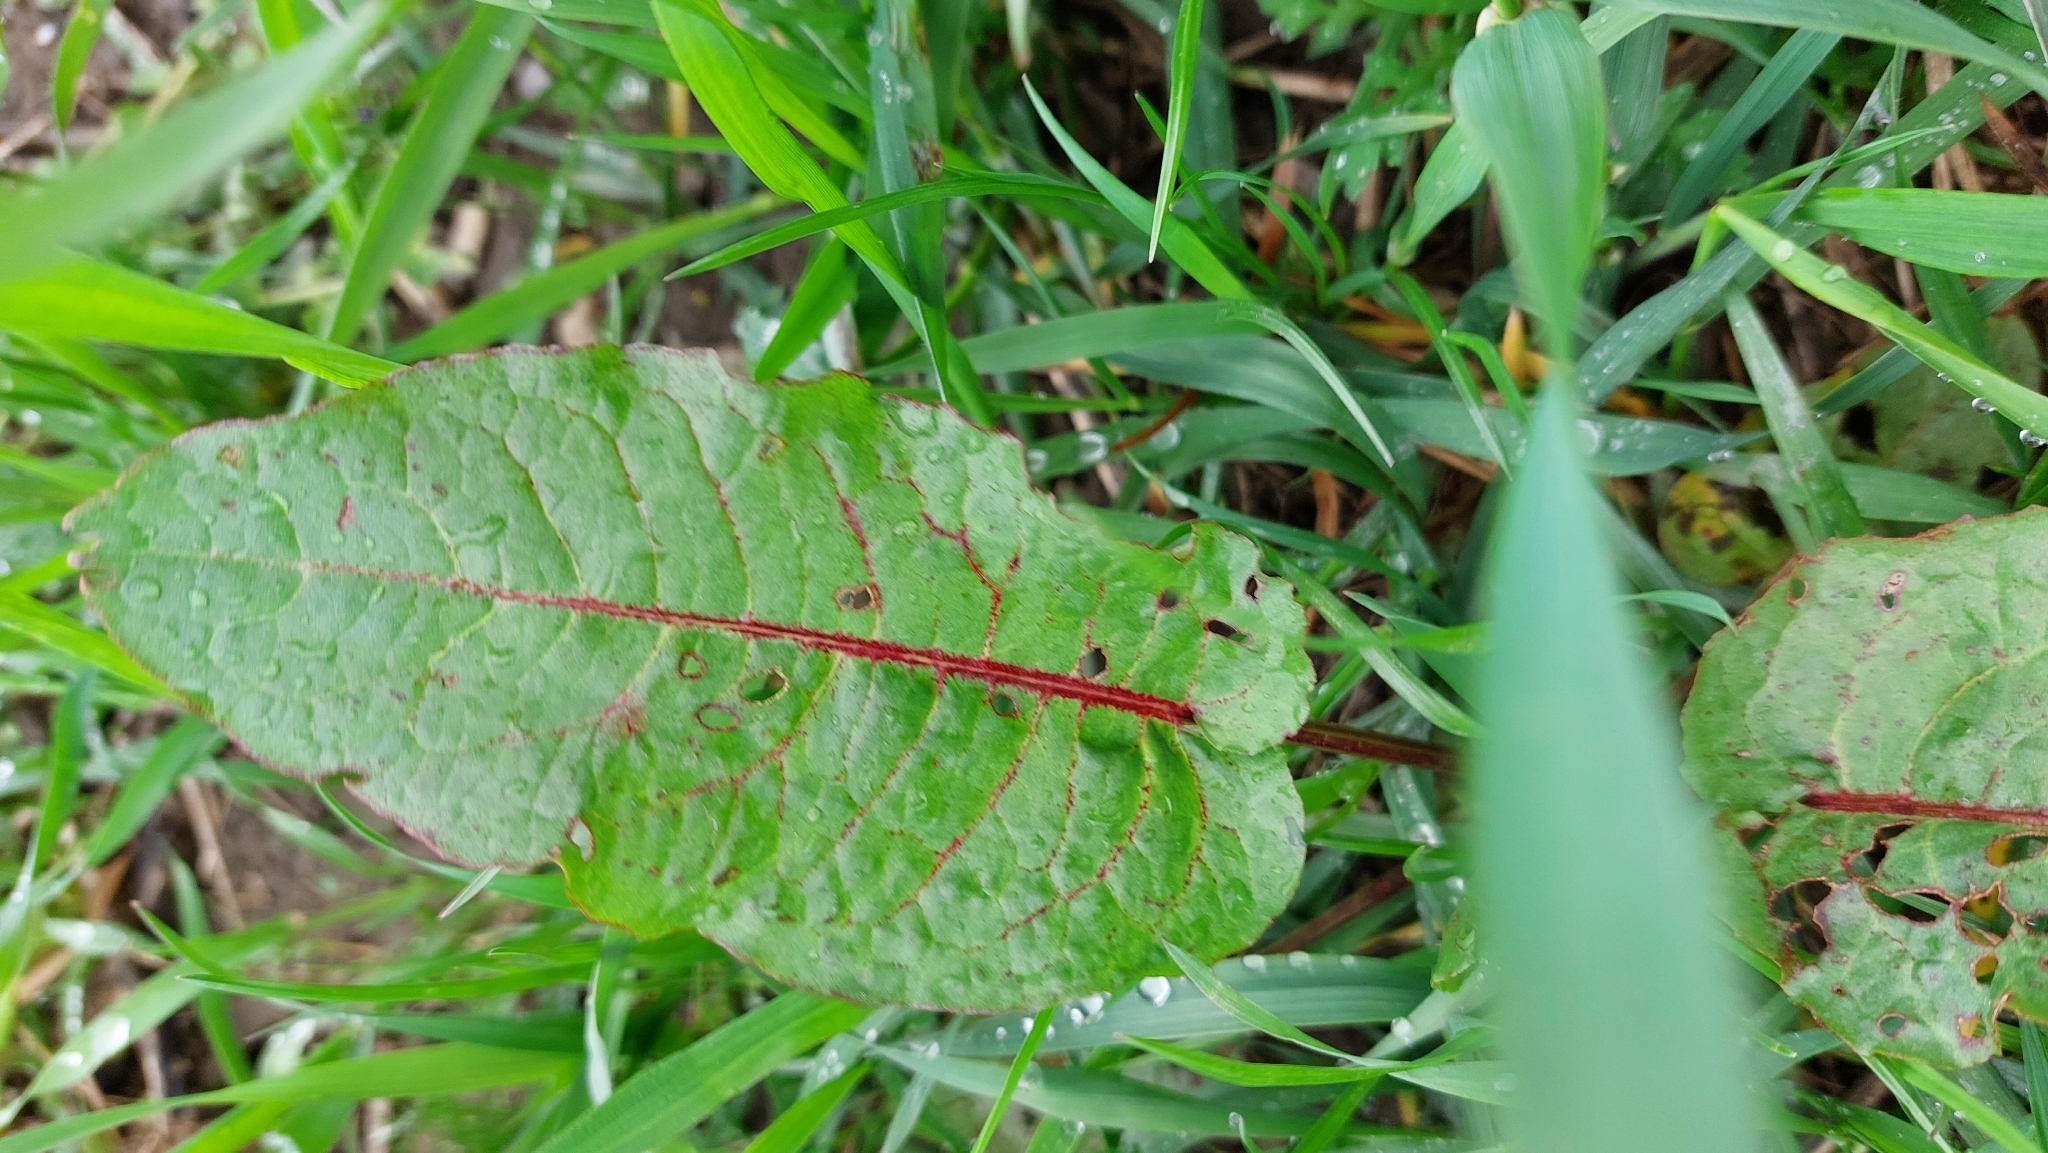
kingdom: Plantae
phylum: Tracheophyta
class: Magnoliopsida
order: Caryophyllales
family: Polygonaceae
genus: Rumex
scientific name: Rumex obtusifolius
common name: Bitter dock
